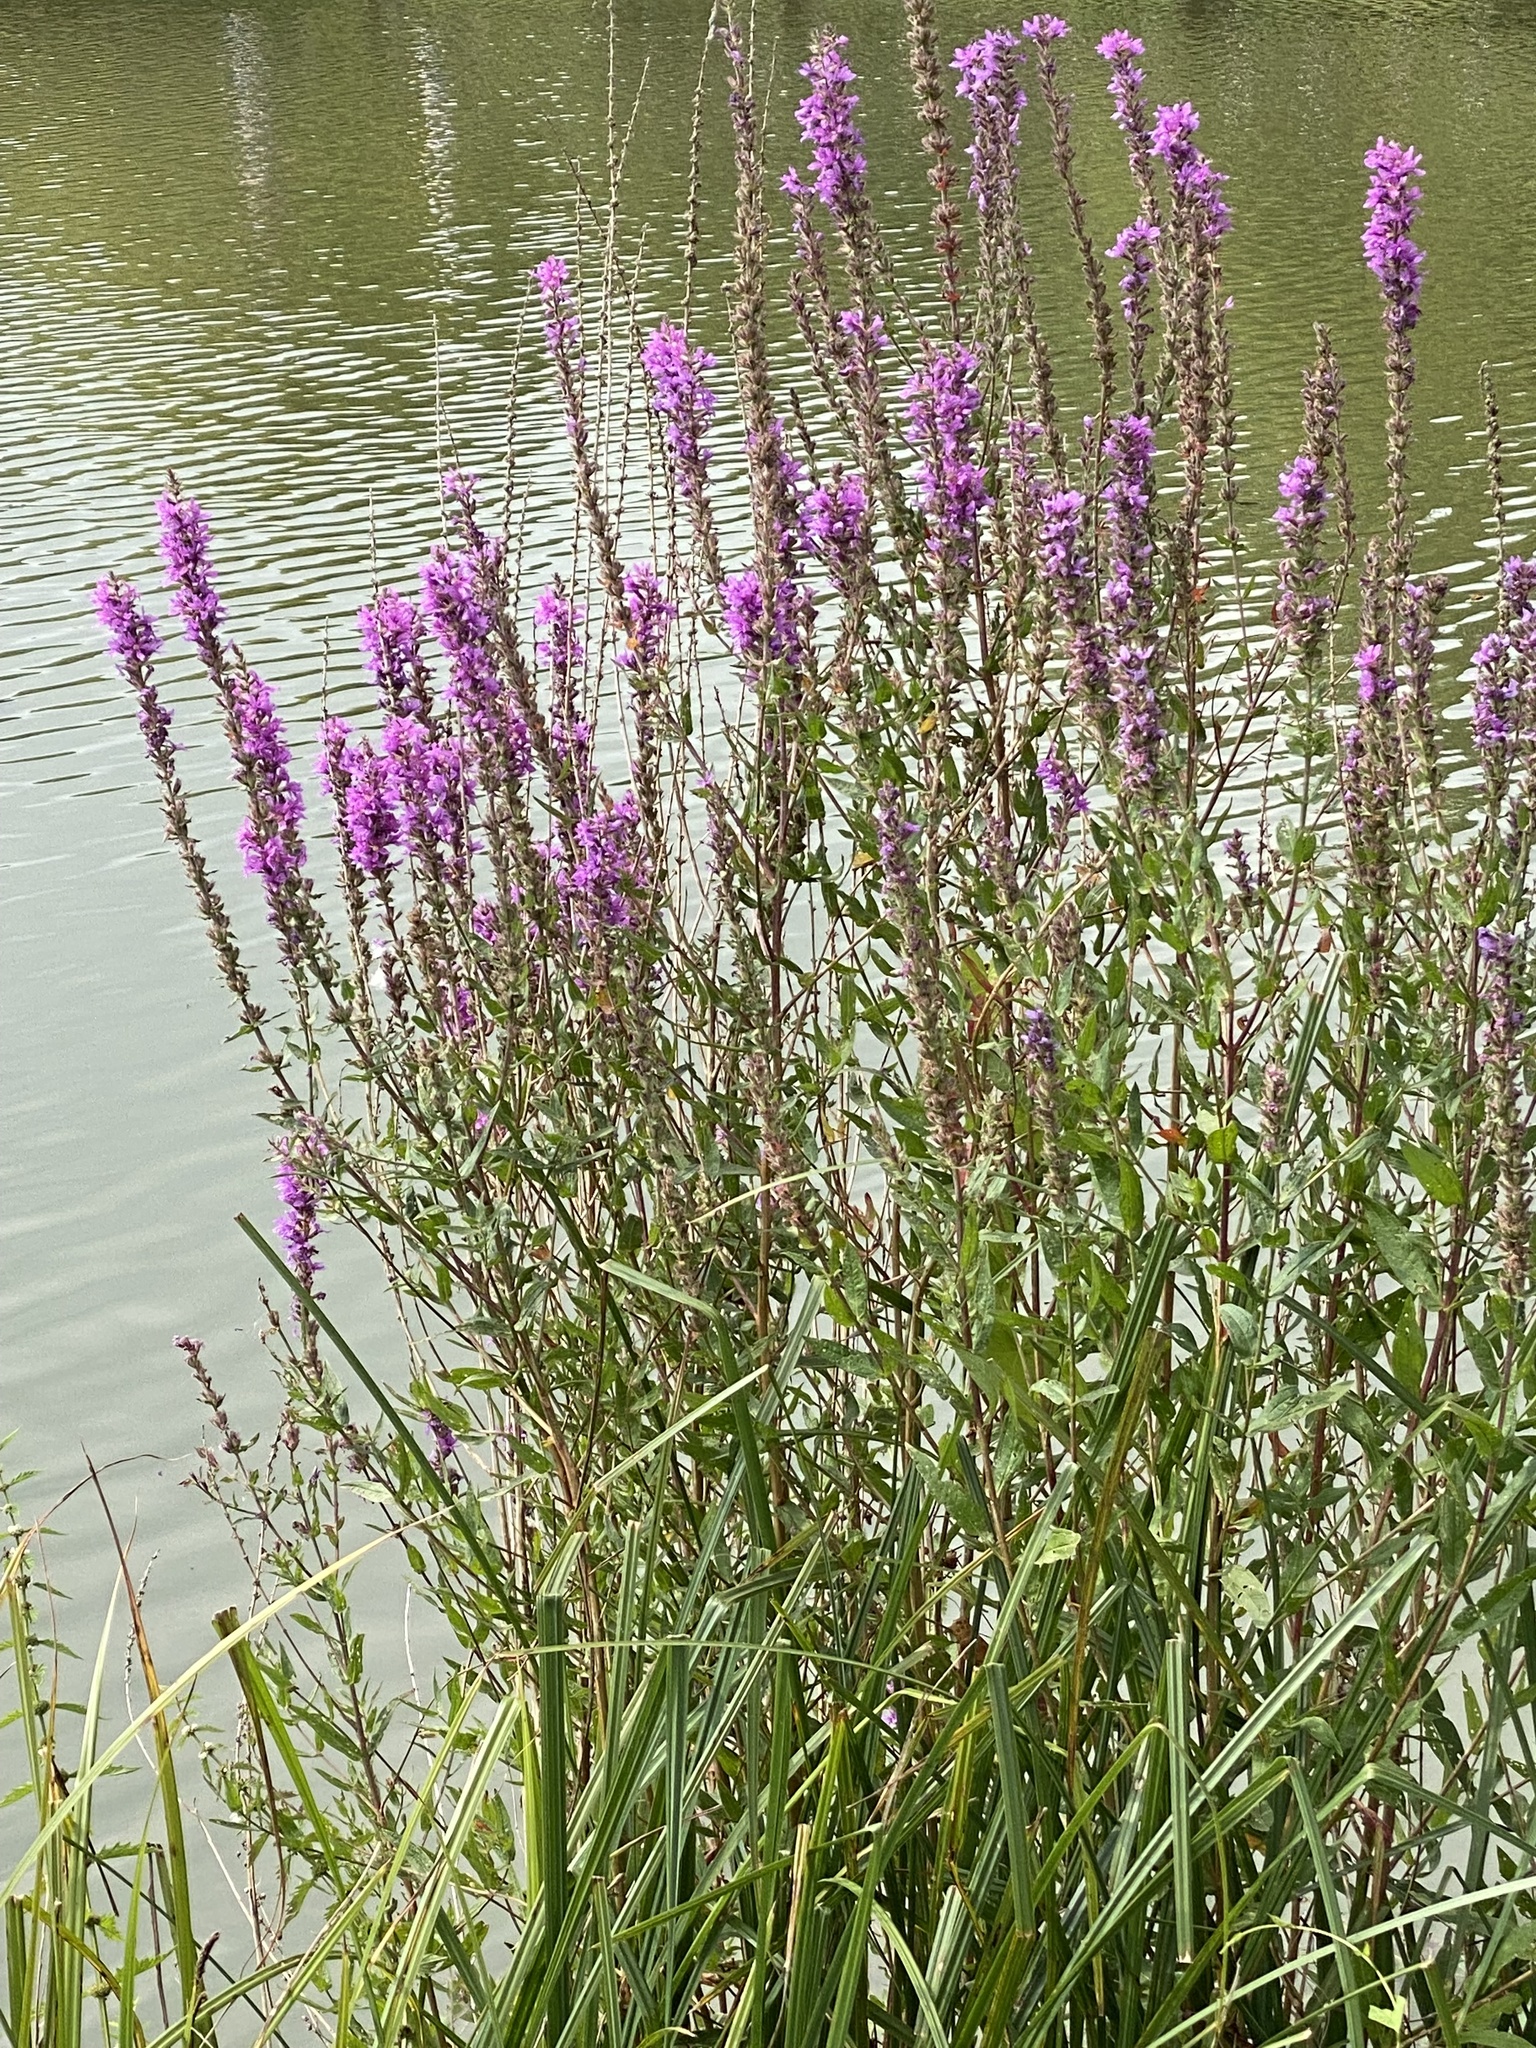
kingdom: Plantae
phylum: Tracheophyta
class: Magnoliopsida
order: Myrtales
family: Lythraceae
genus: Lythrum
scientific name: Lythrum salicaria
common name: Purple loosestrife
